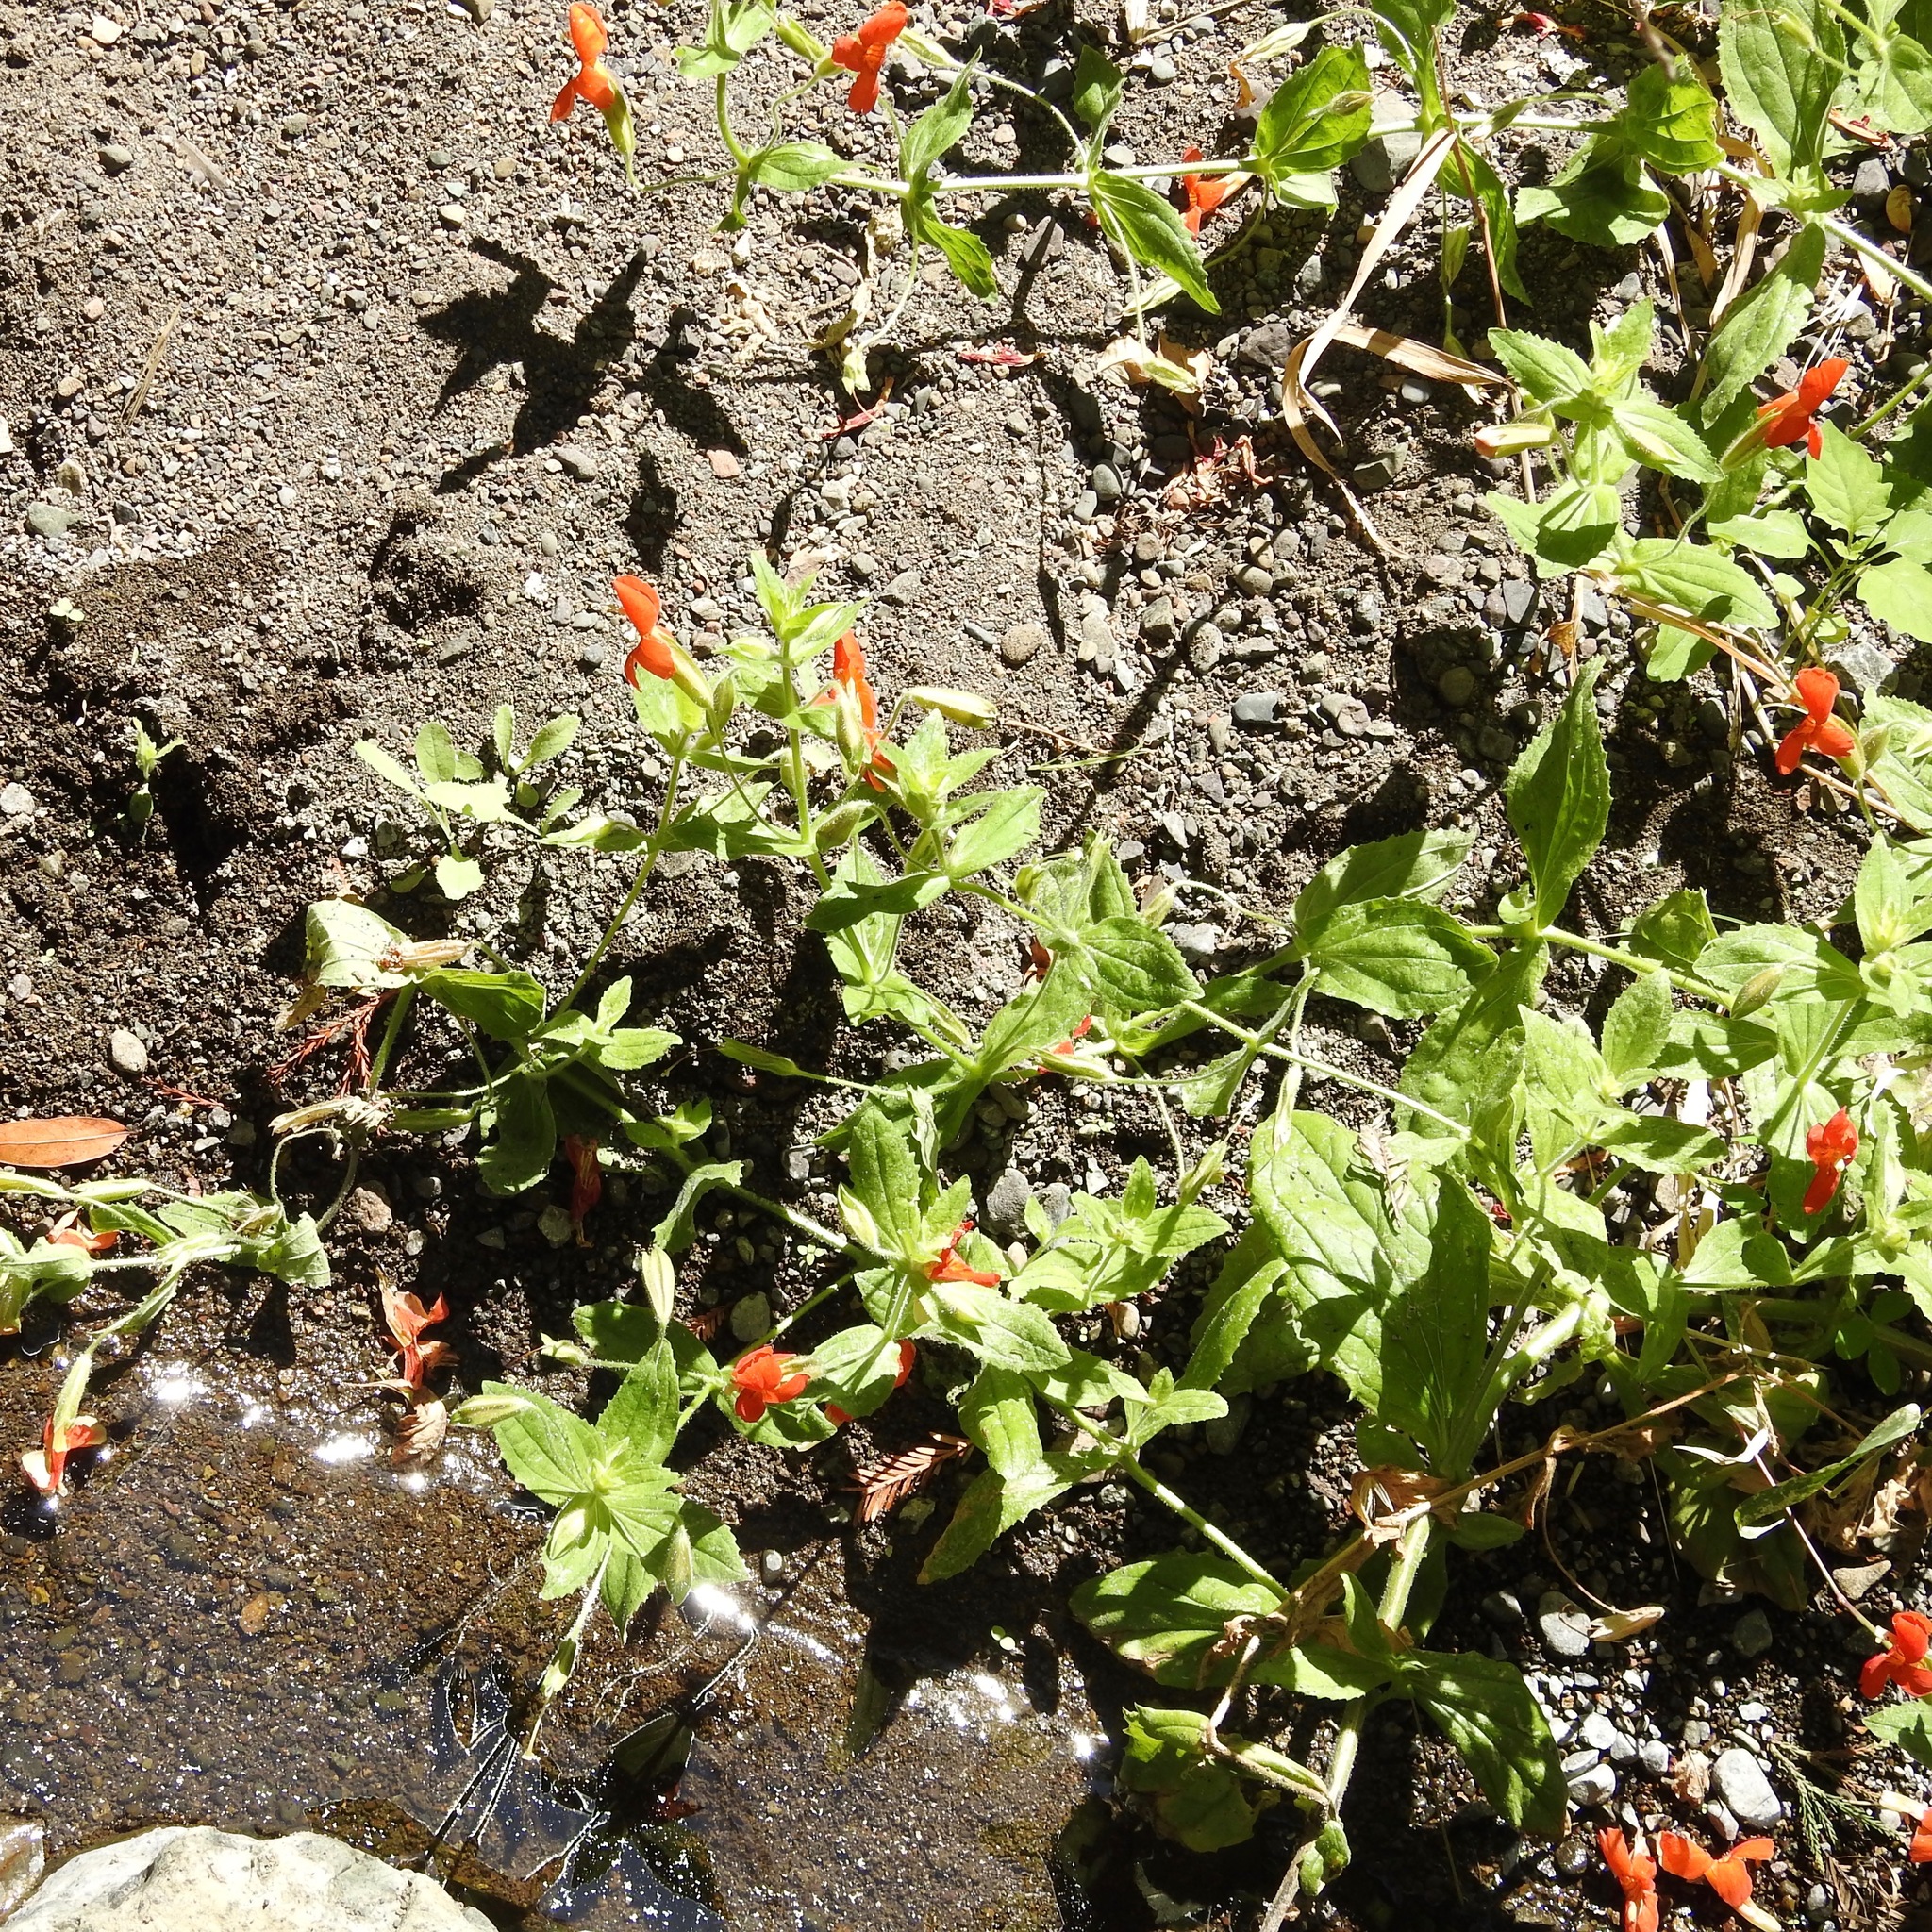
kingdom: Plantae
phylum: Tracheophyta
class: Magnoliopsida
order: Lamiales
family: Phrymaceae
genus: Erythranthe
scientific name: Erythranthe cardinalis
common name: Scarlet monkey-flower
